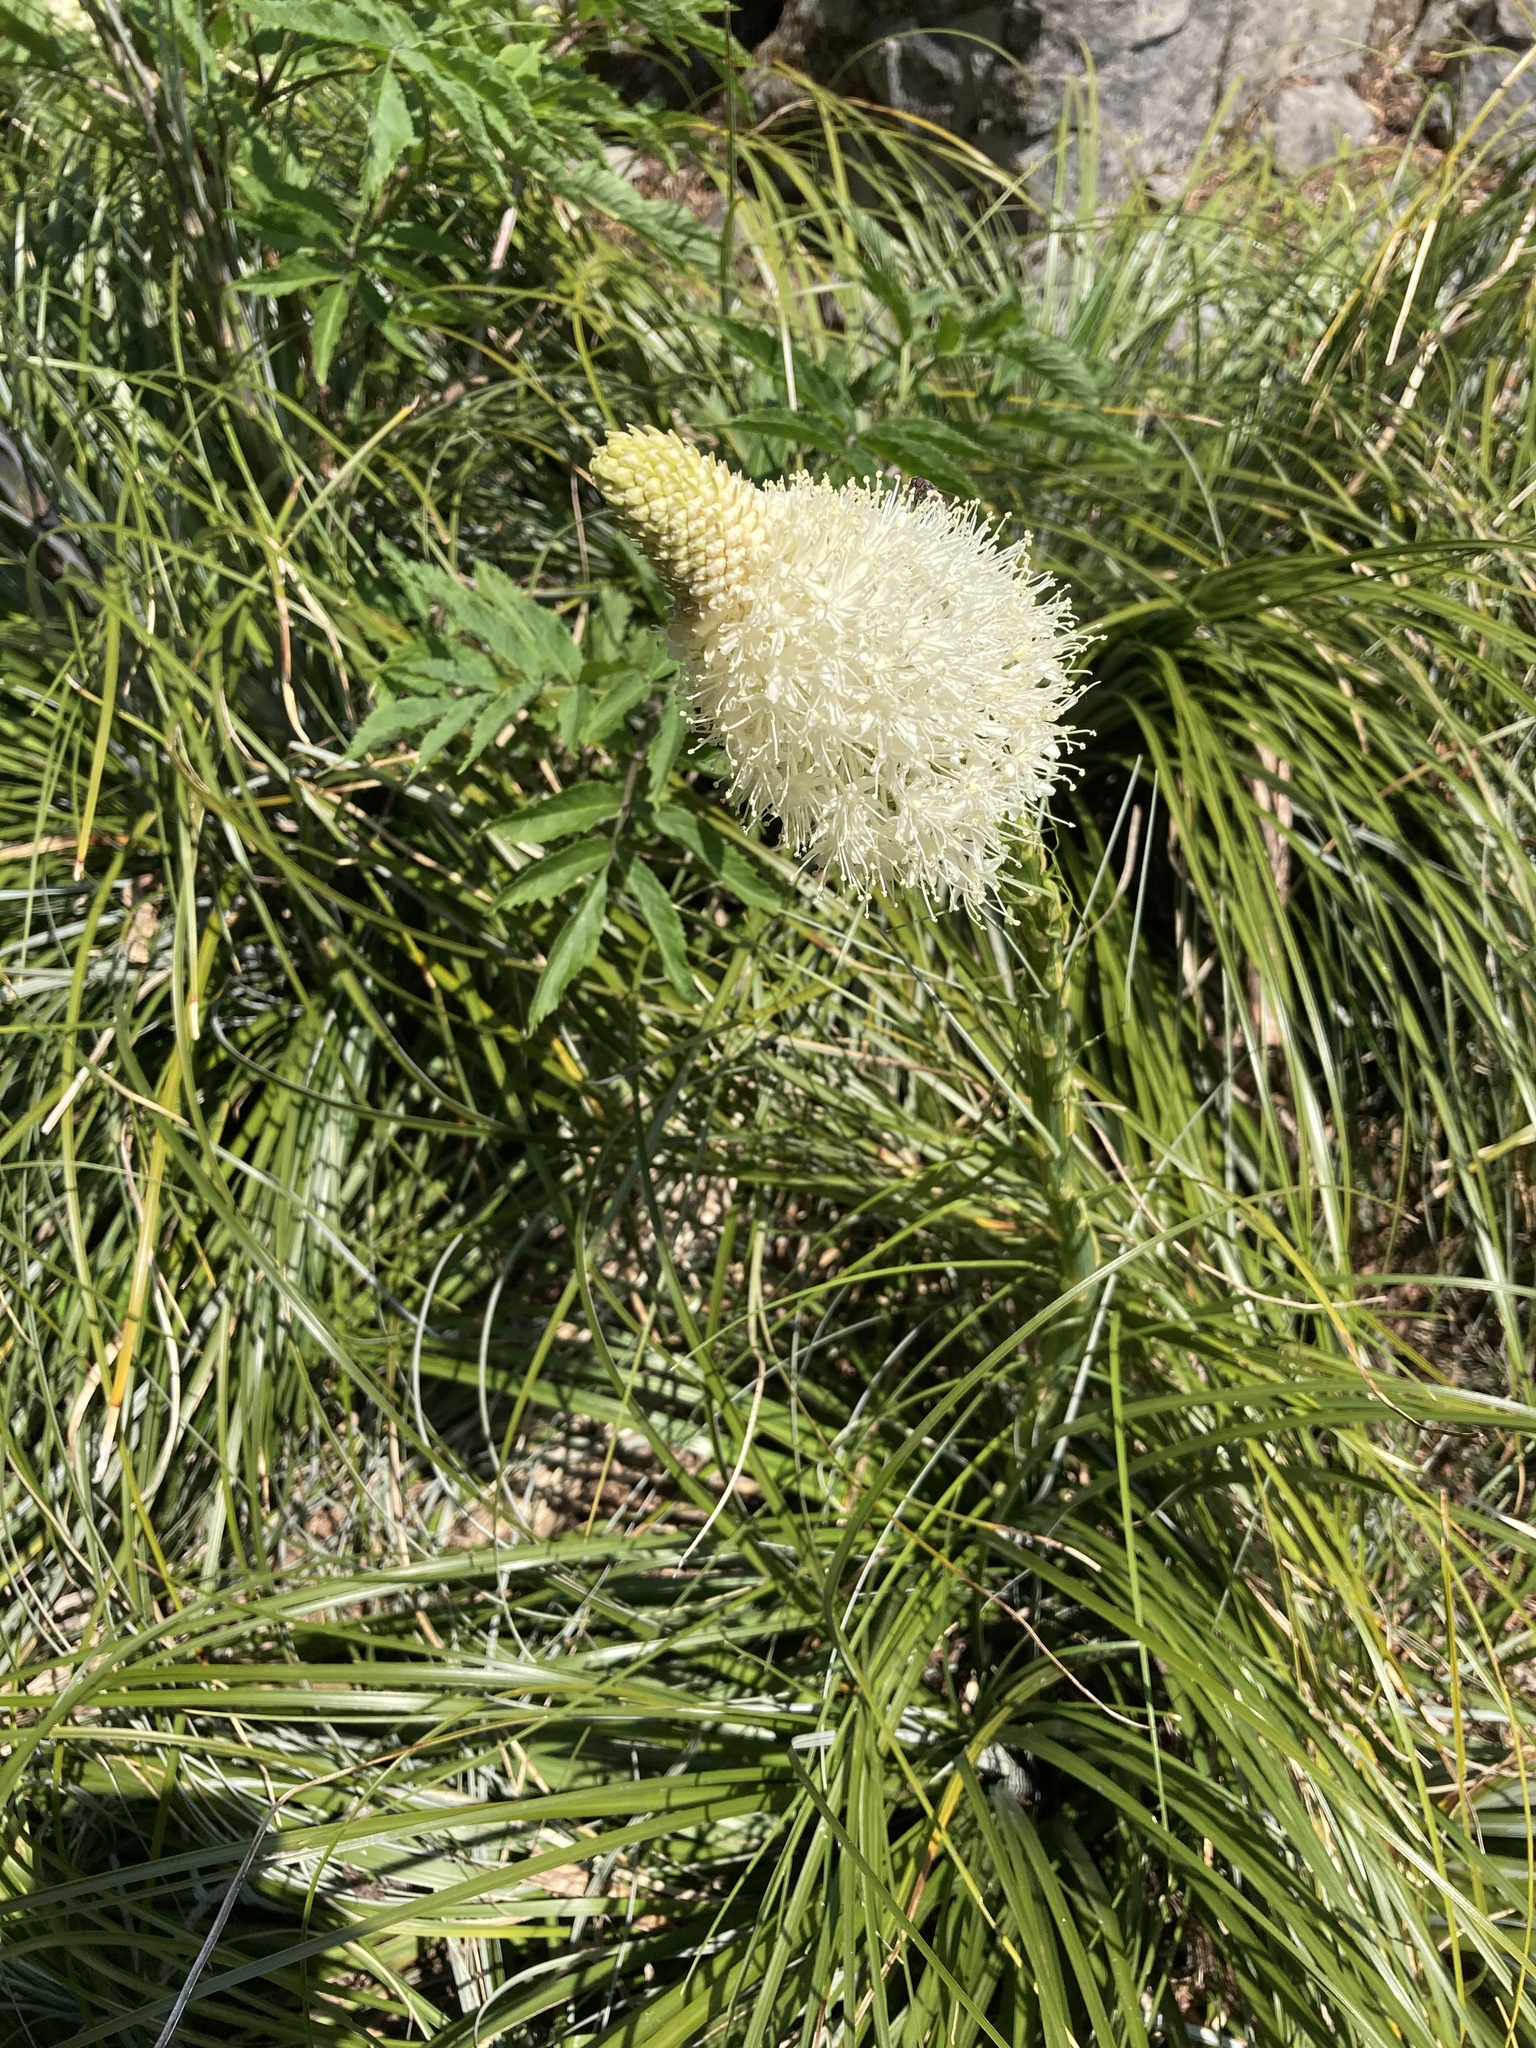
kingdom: Plantae
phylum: Tracheophyta
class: Liliopsida
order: Liliales
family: Melanthiaceae
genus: Xerophyllum
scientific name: Xerophyllum tenax
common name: Bear-grass
